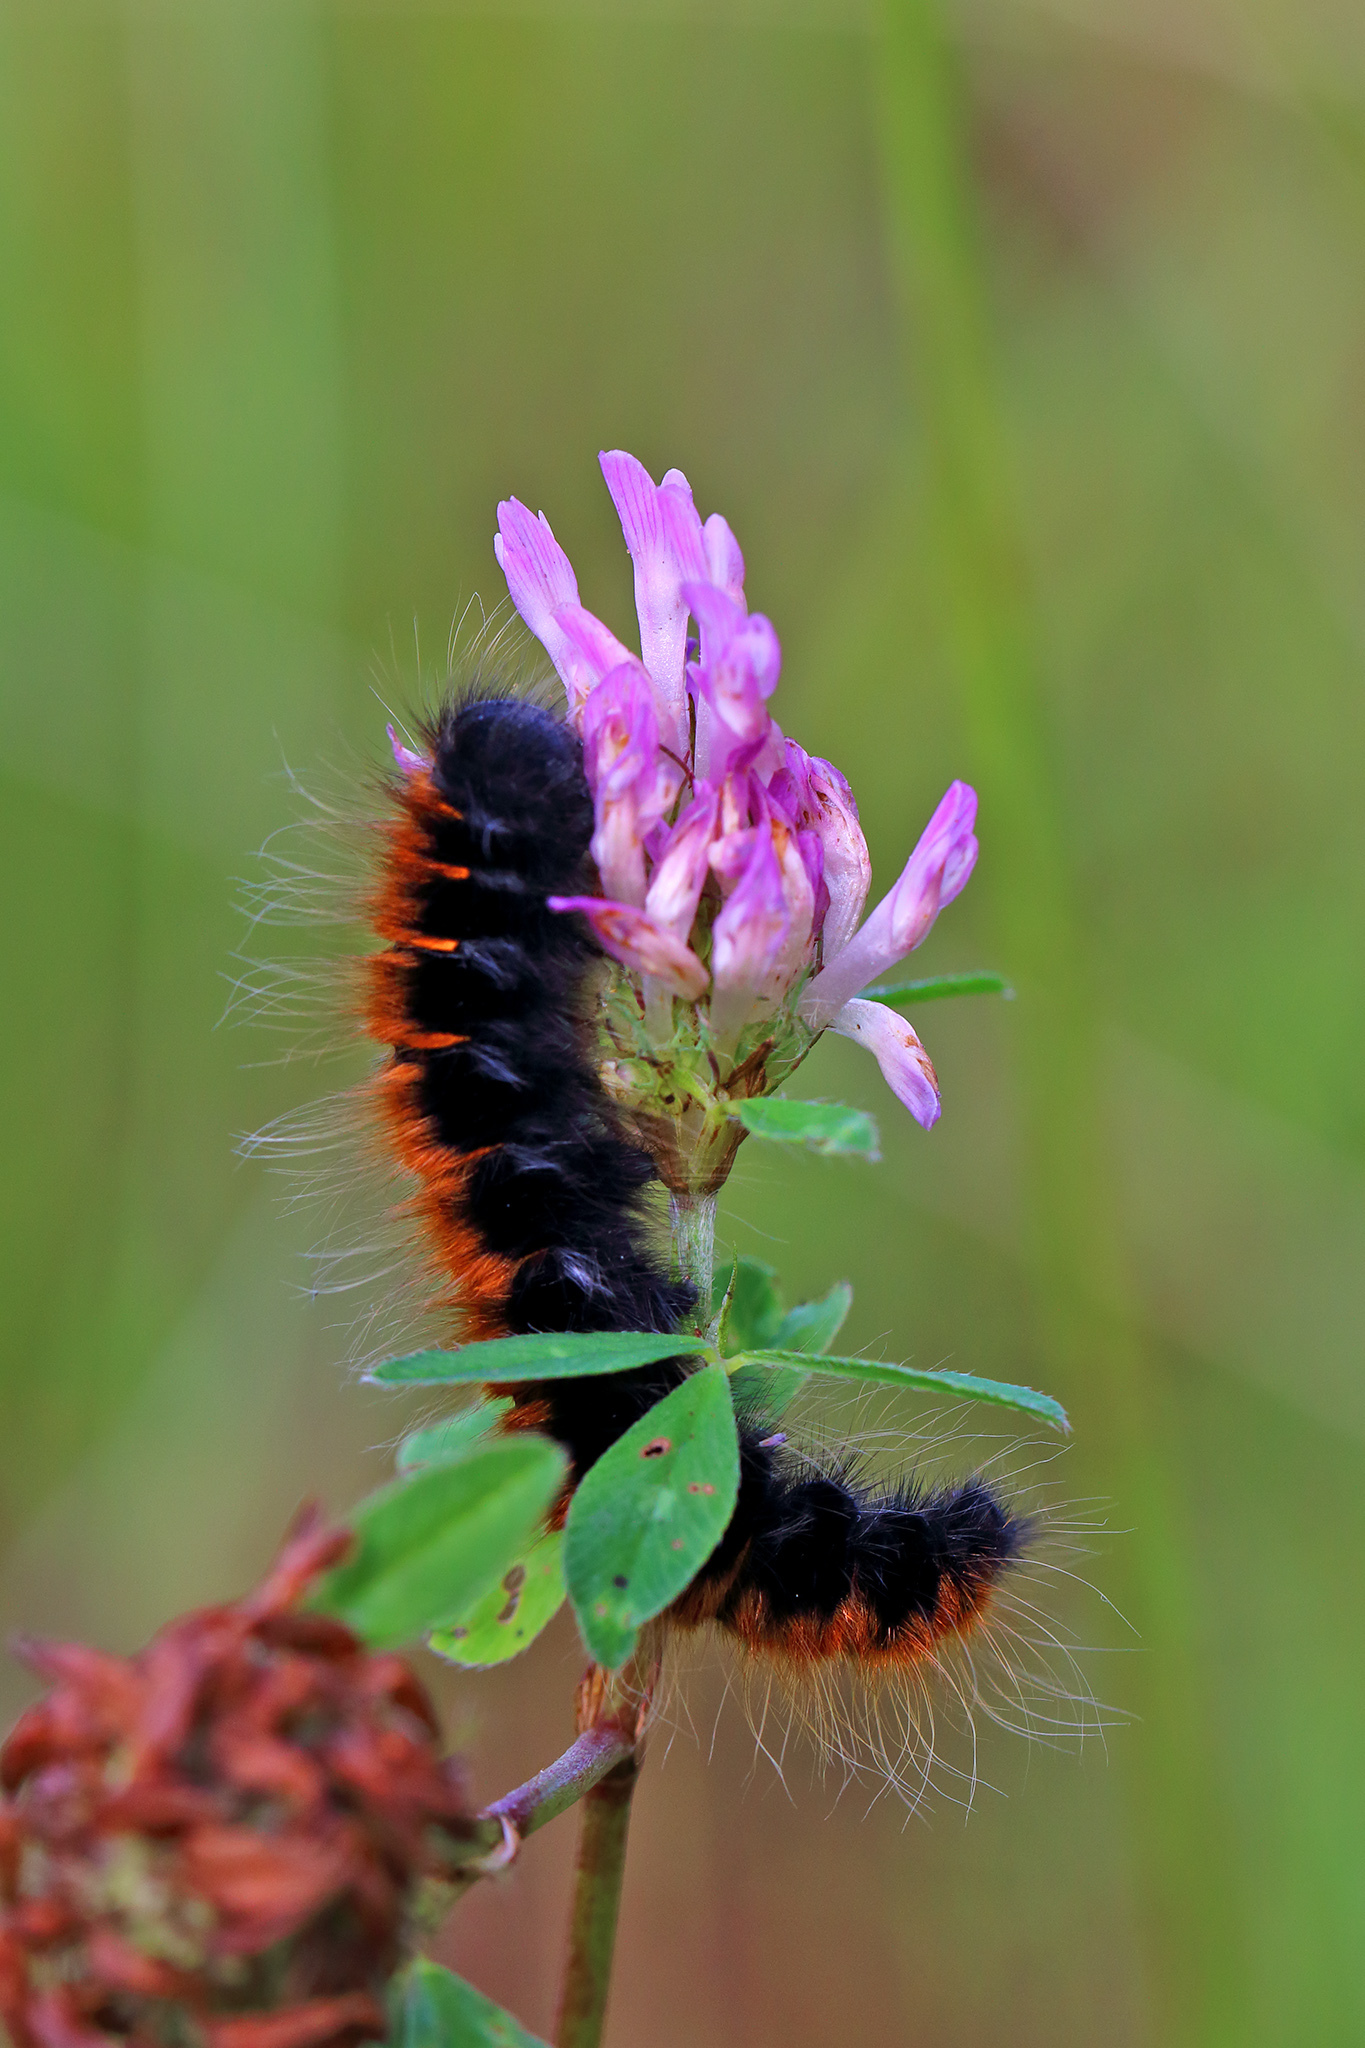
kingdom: Animalia
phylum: Arthropoda
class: Insecta
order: Lepidoptera
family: Lasiocampidae
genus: Macrothylacia
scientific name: Macrothylacia rubi
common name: Fox moth
